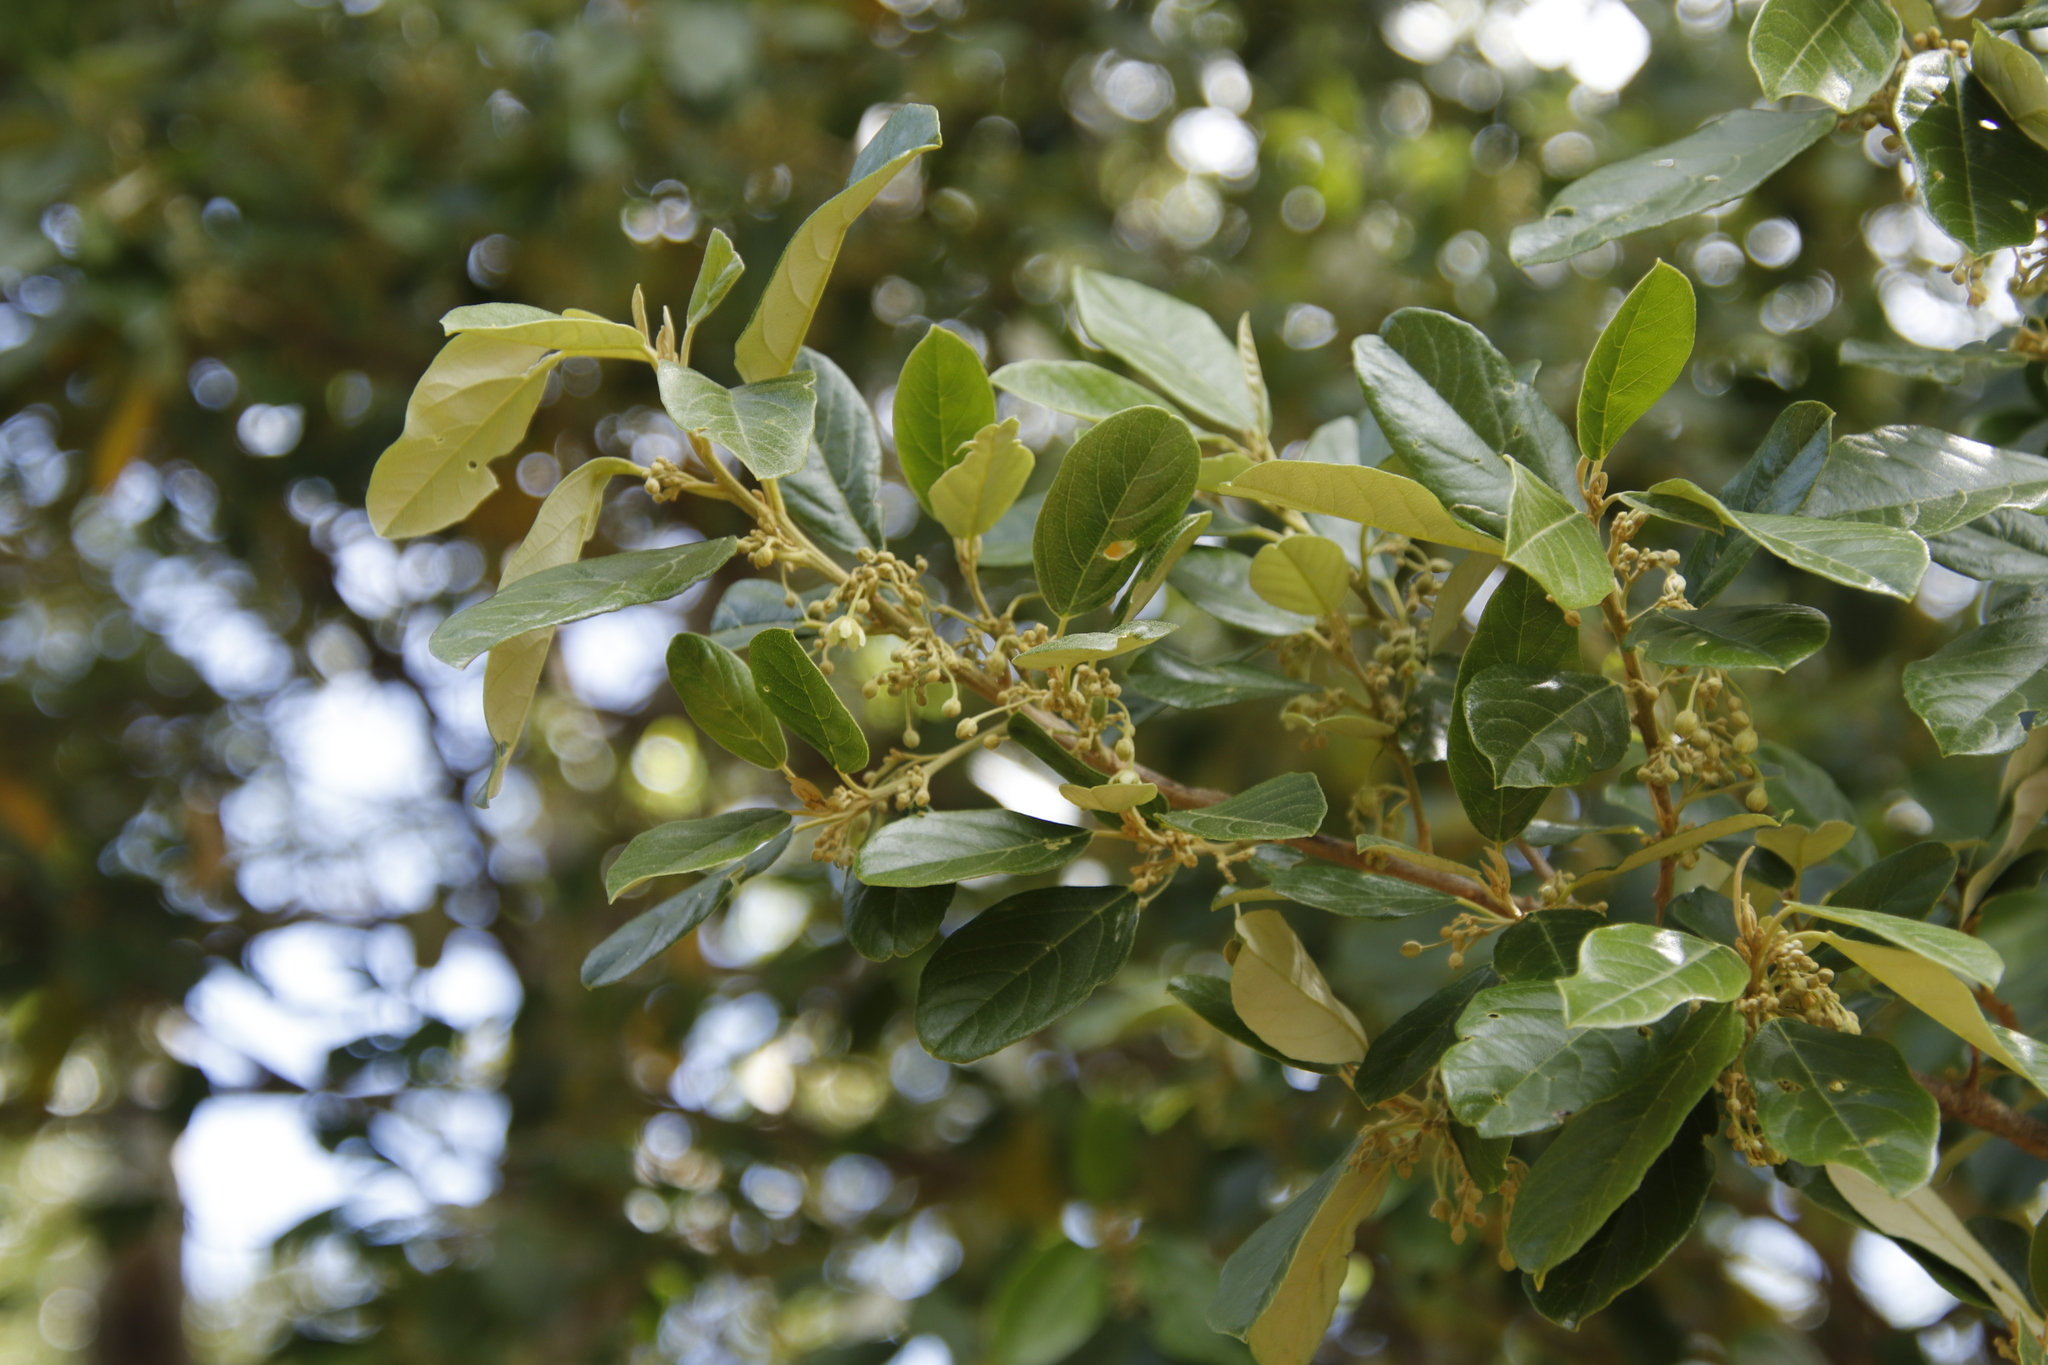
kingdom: Plantae
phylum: Tracheophyta
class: Magnoliopsida
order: Malpighiales
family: Achariaceae
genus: Kiggelaria
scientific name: Kiggelaria africana
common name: Wild peach
